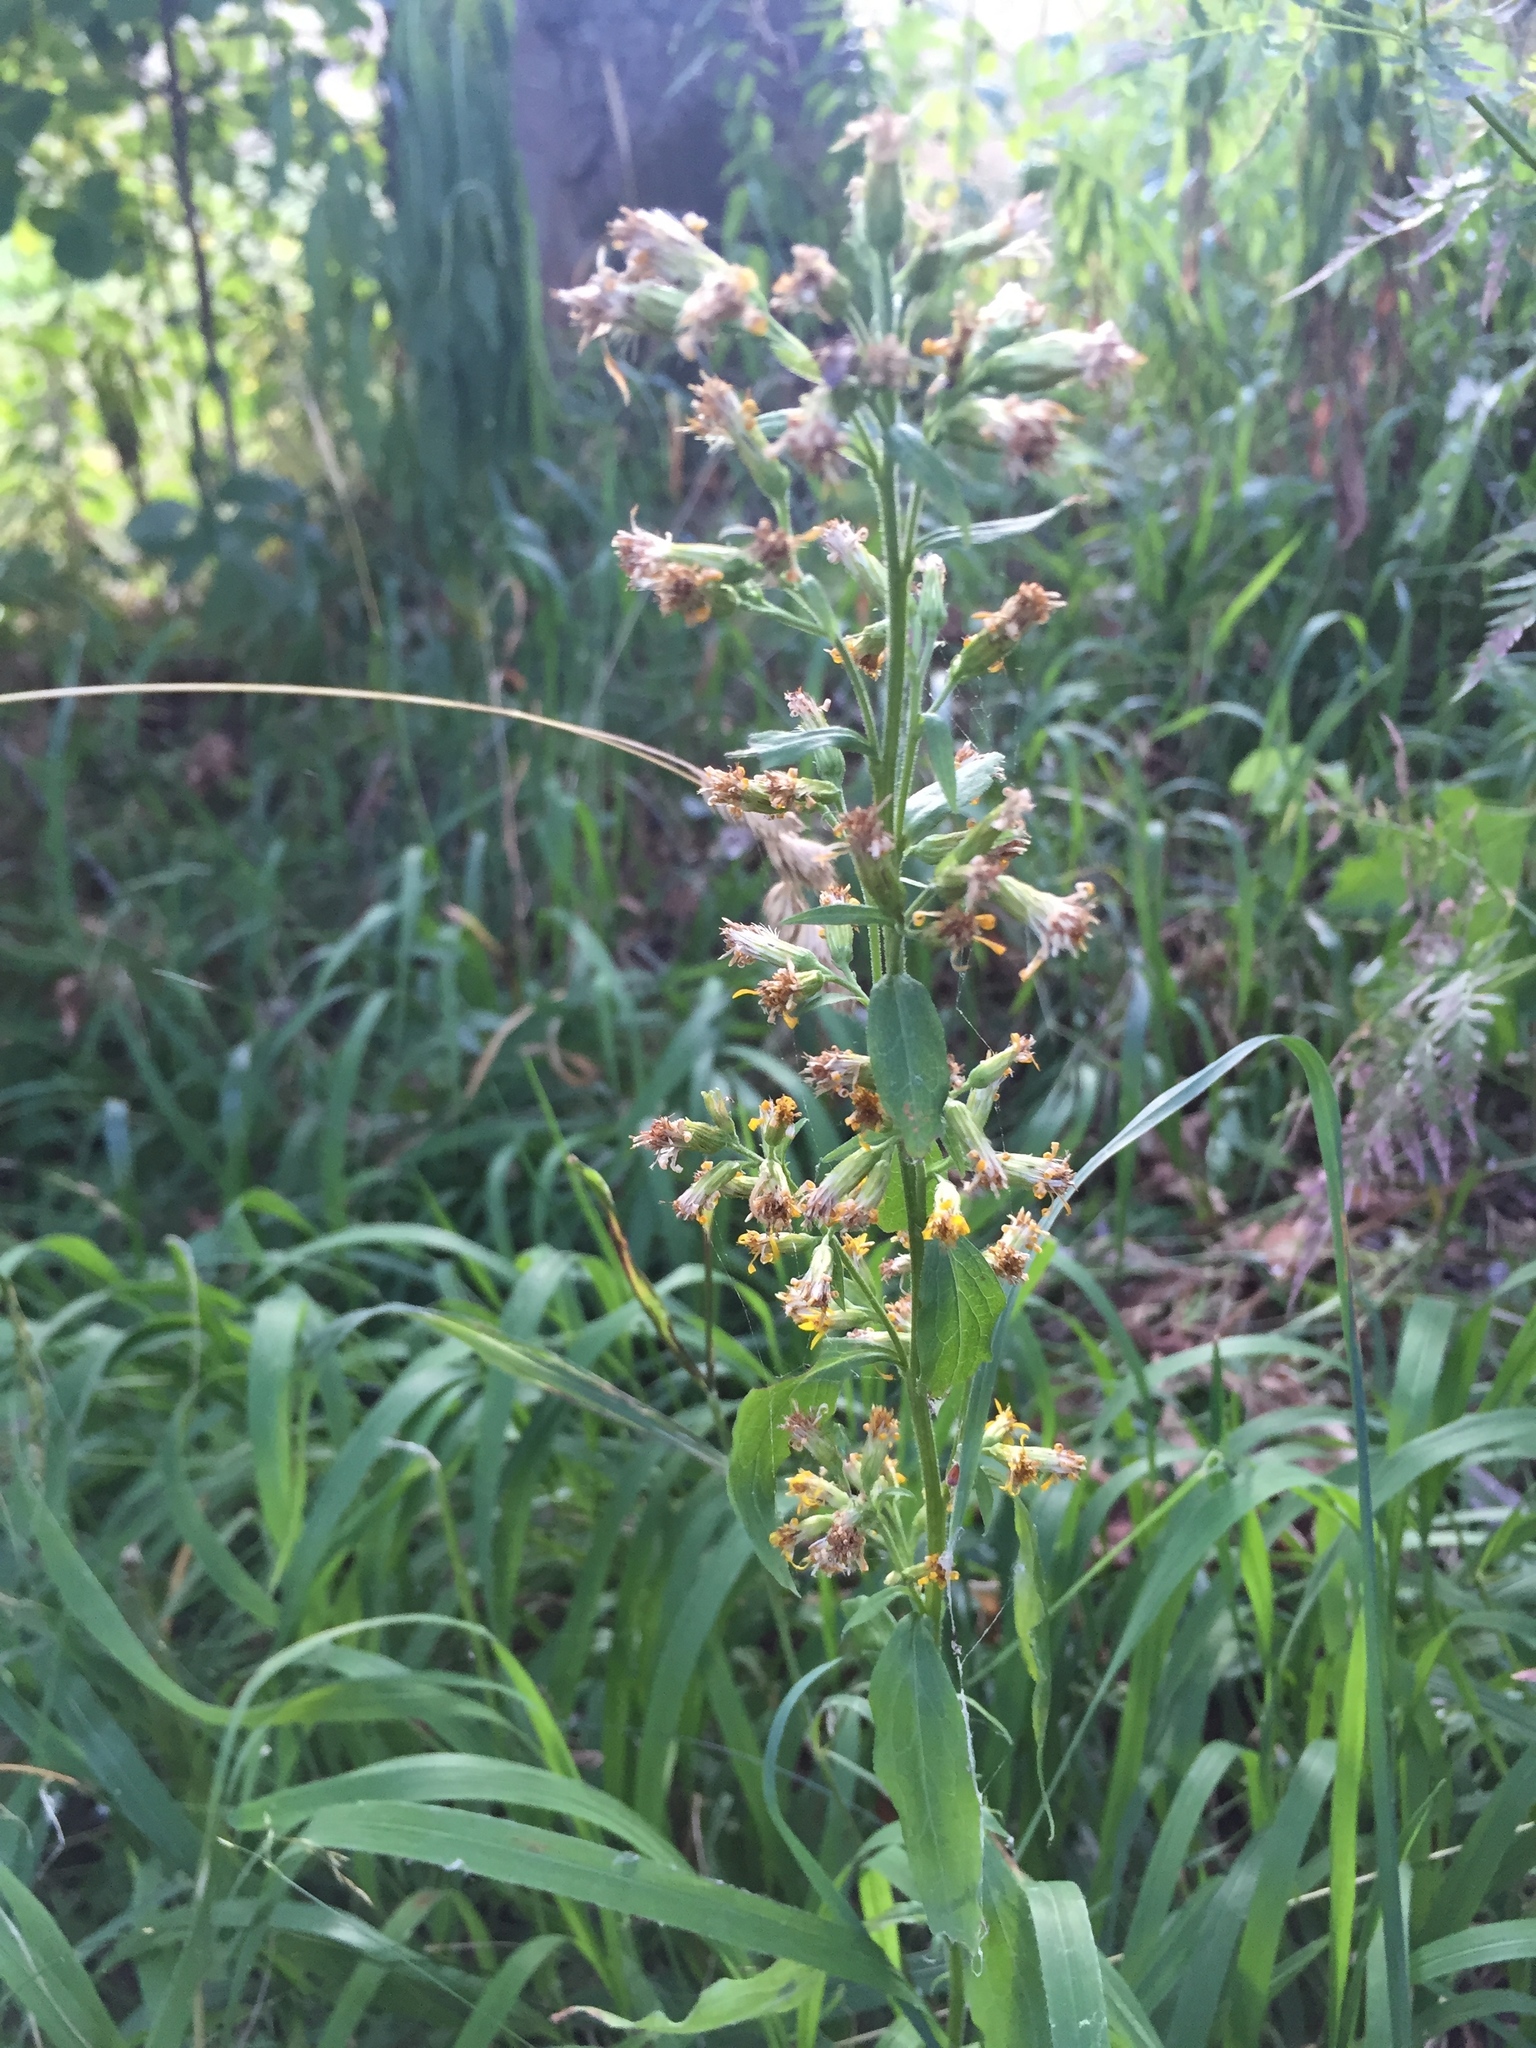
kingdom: Plantae
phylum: Tracheophyta
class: Magnoliopsida
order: Asterales
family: Asteraceae
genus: Solidago
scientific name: Solidago virgaurea
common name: Goldenrod
